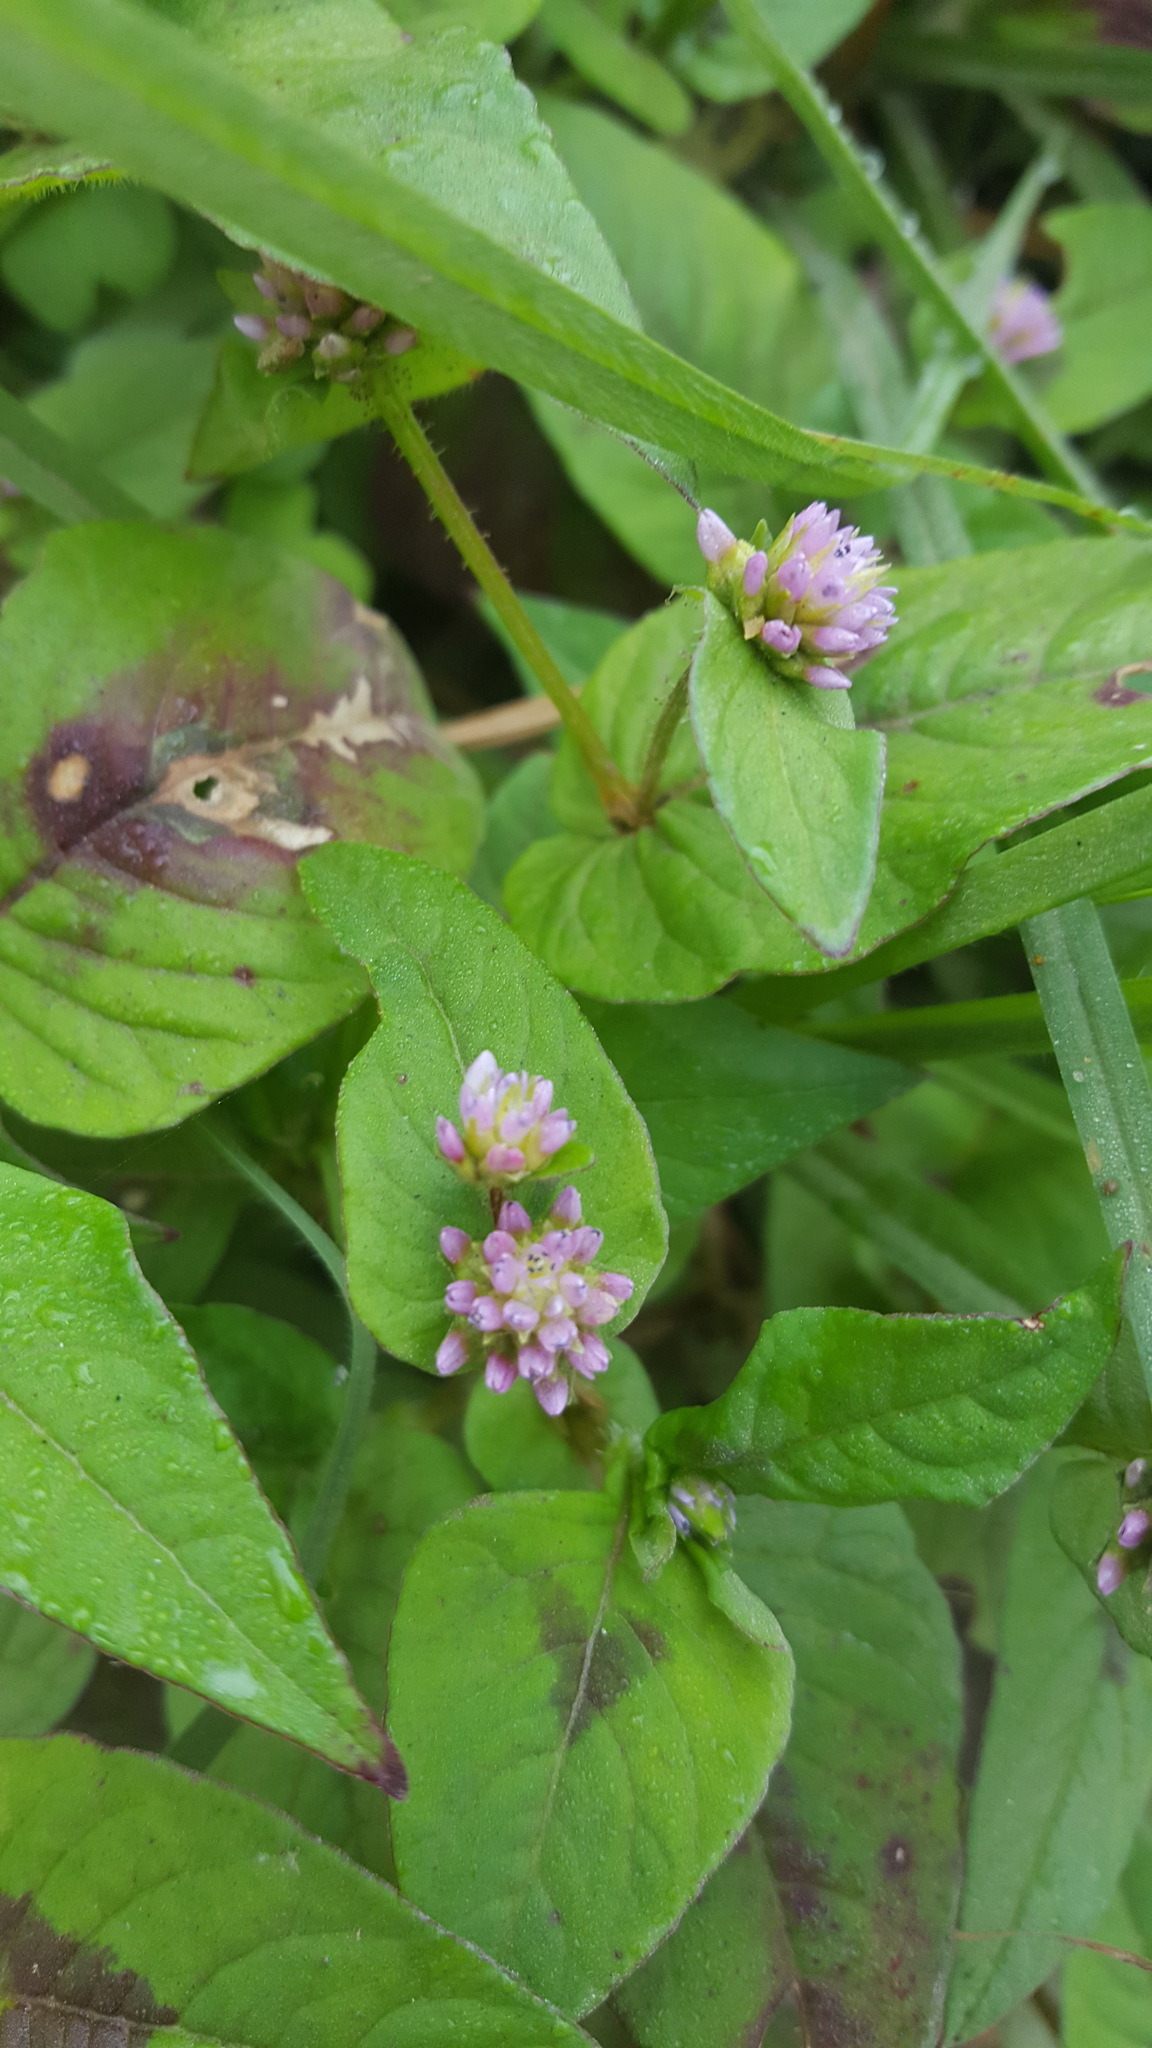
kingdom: Plantae
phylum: Tracheophyta
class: Magnoliopsida
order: Caryophyllales
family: Polygonaceae
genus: Persicaria
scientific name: Persicaria nepalensis
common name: Nepal persicaria
